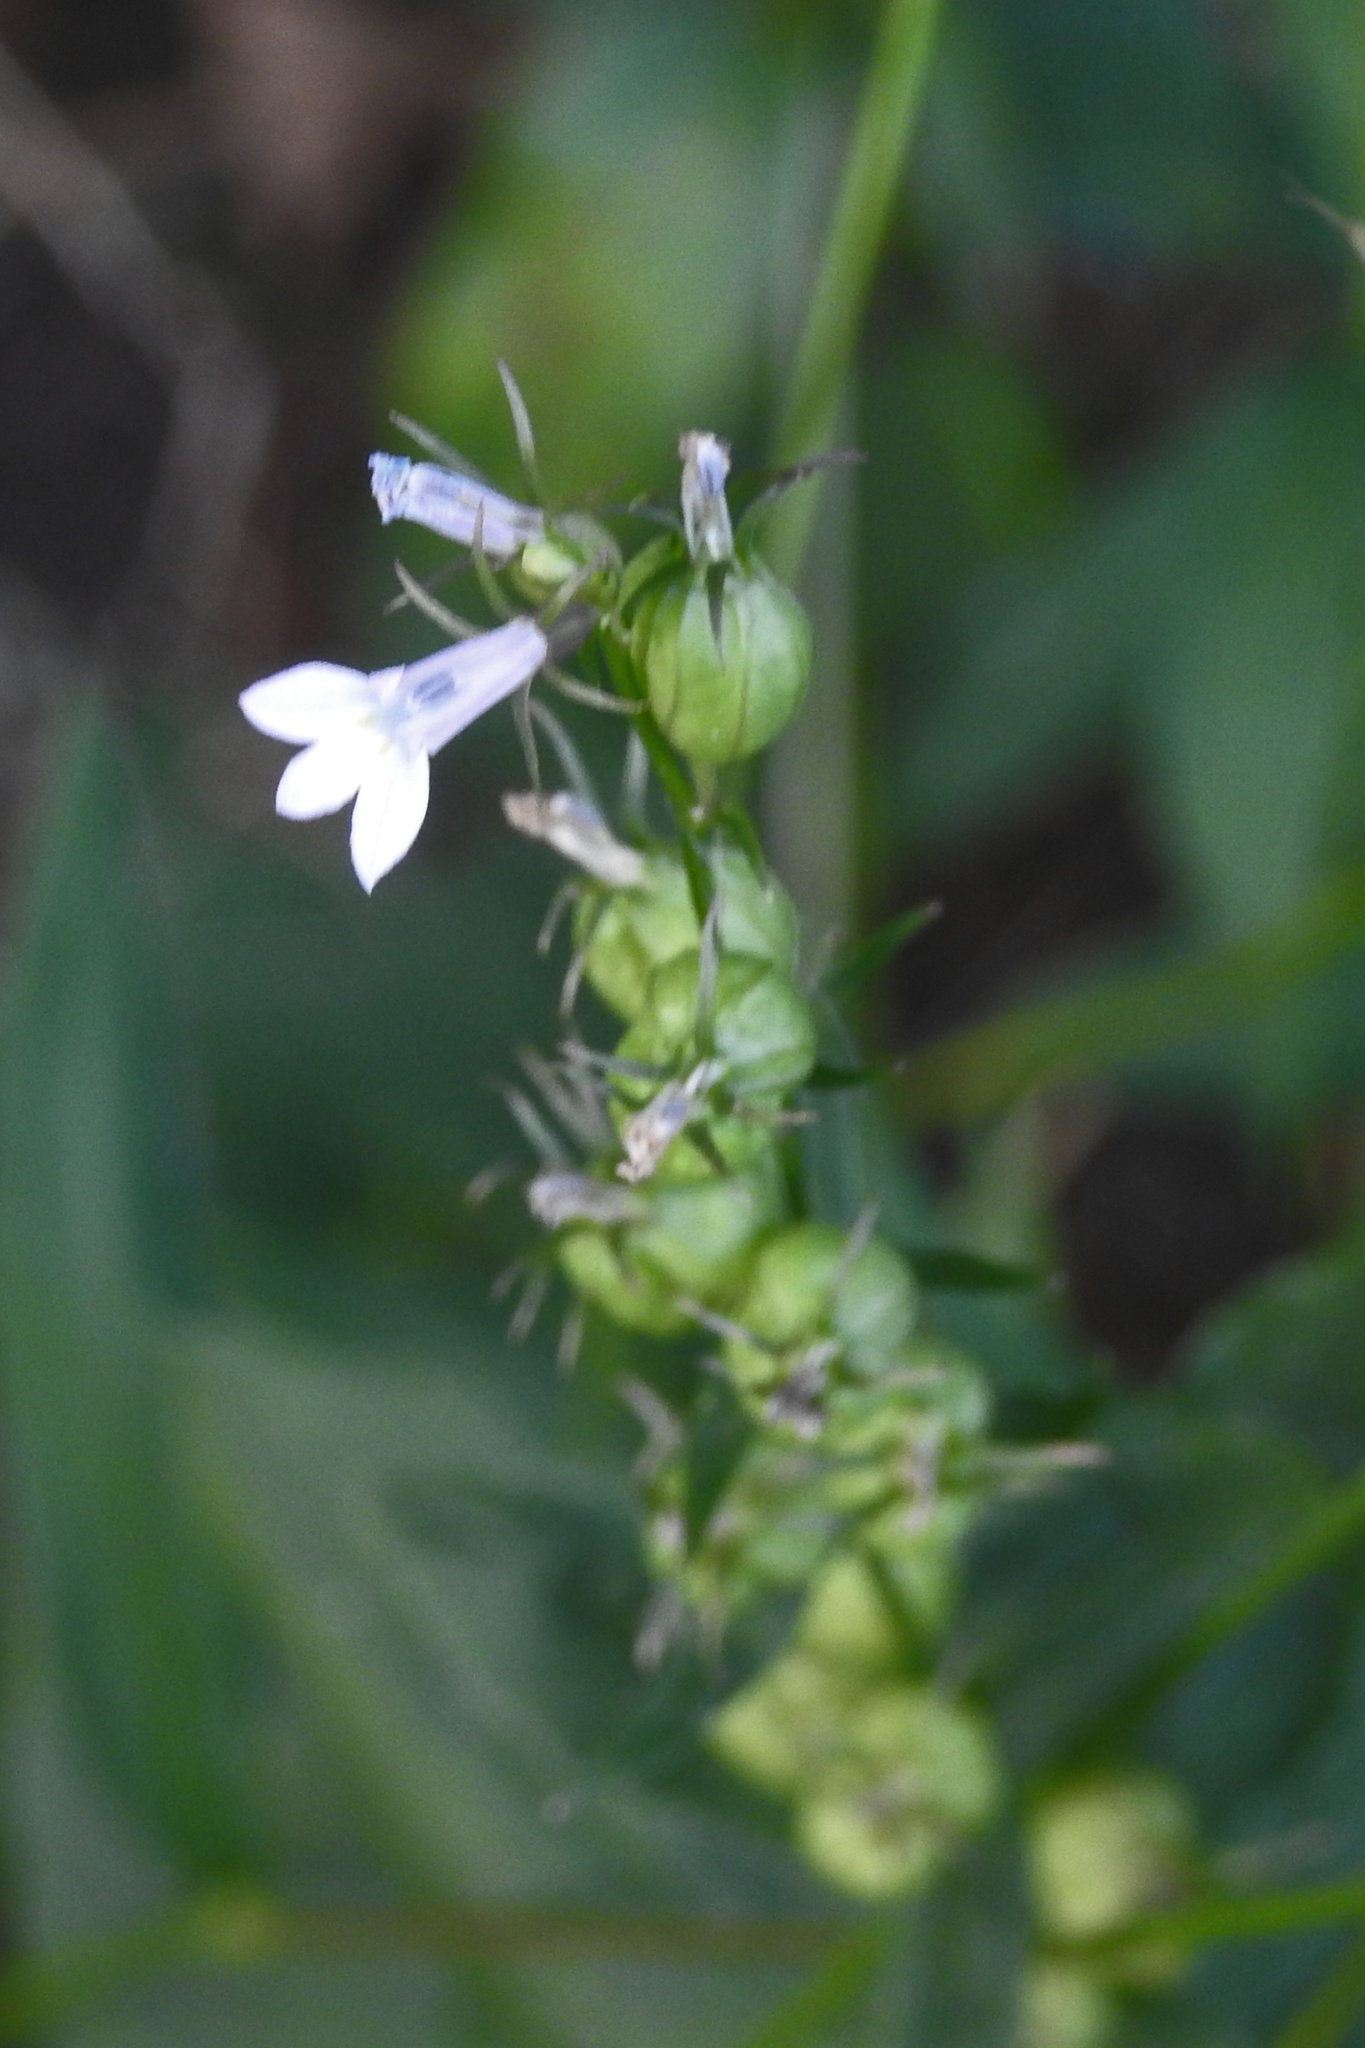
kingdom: Plantae
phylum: Tracheophyta
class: Magnoliopsida
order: Asterales
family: Campanulaceae
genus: Lobelia
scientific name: Lobelia inflata
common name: Indian tobacco
